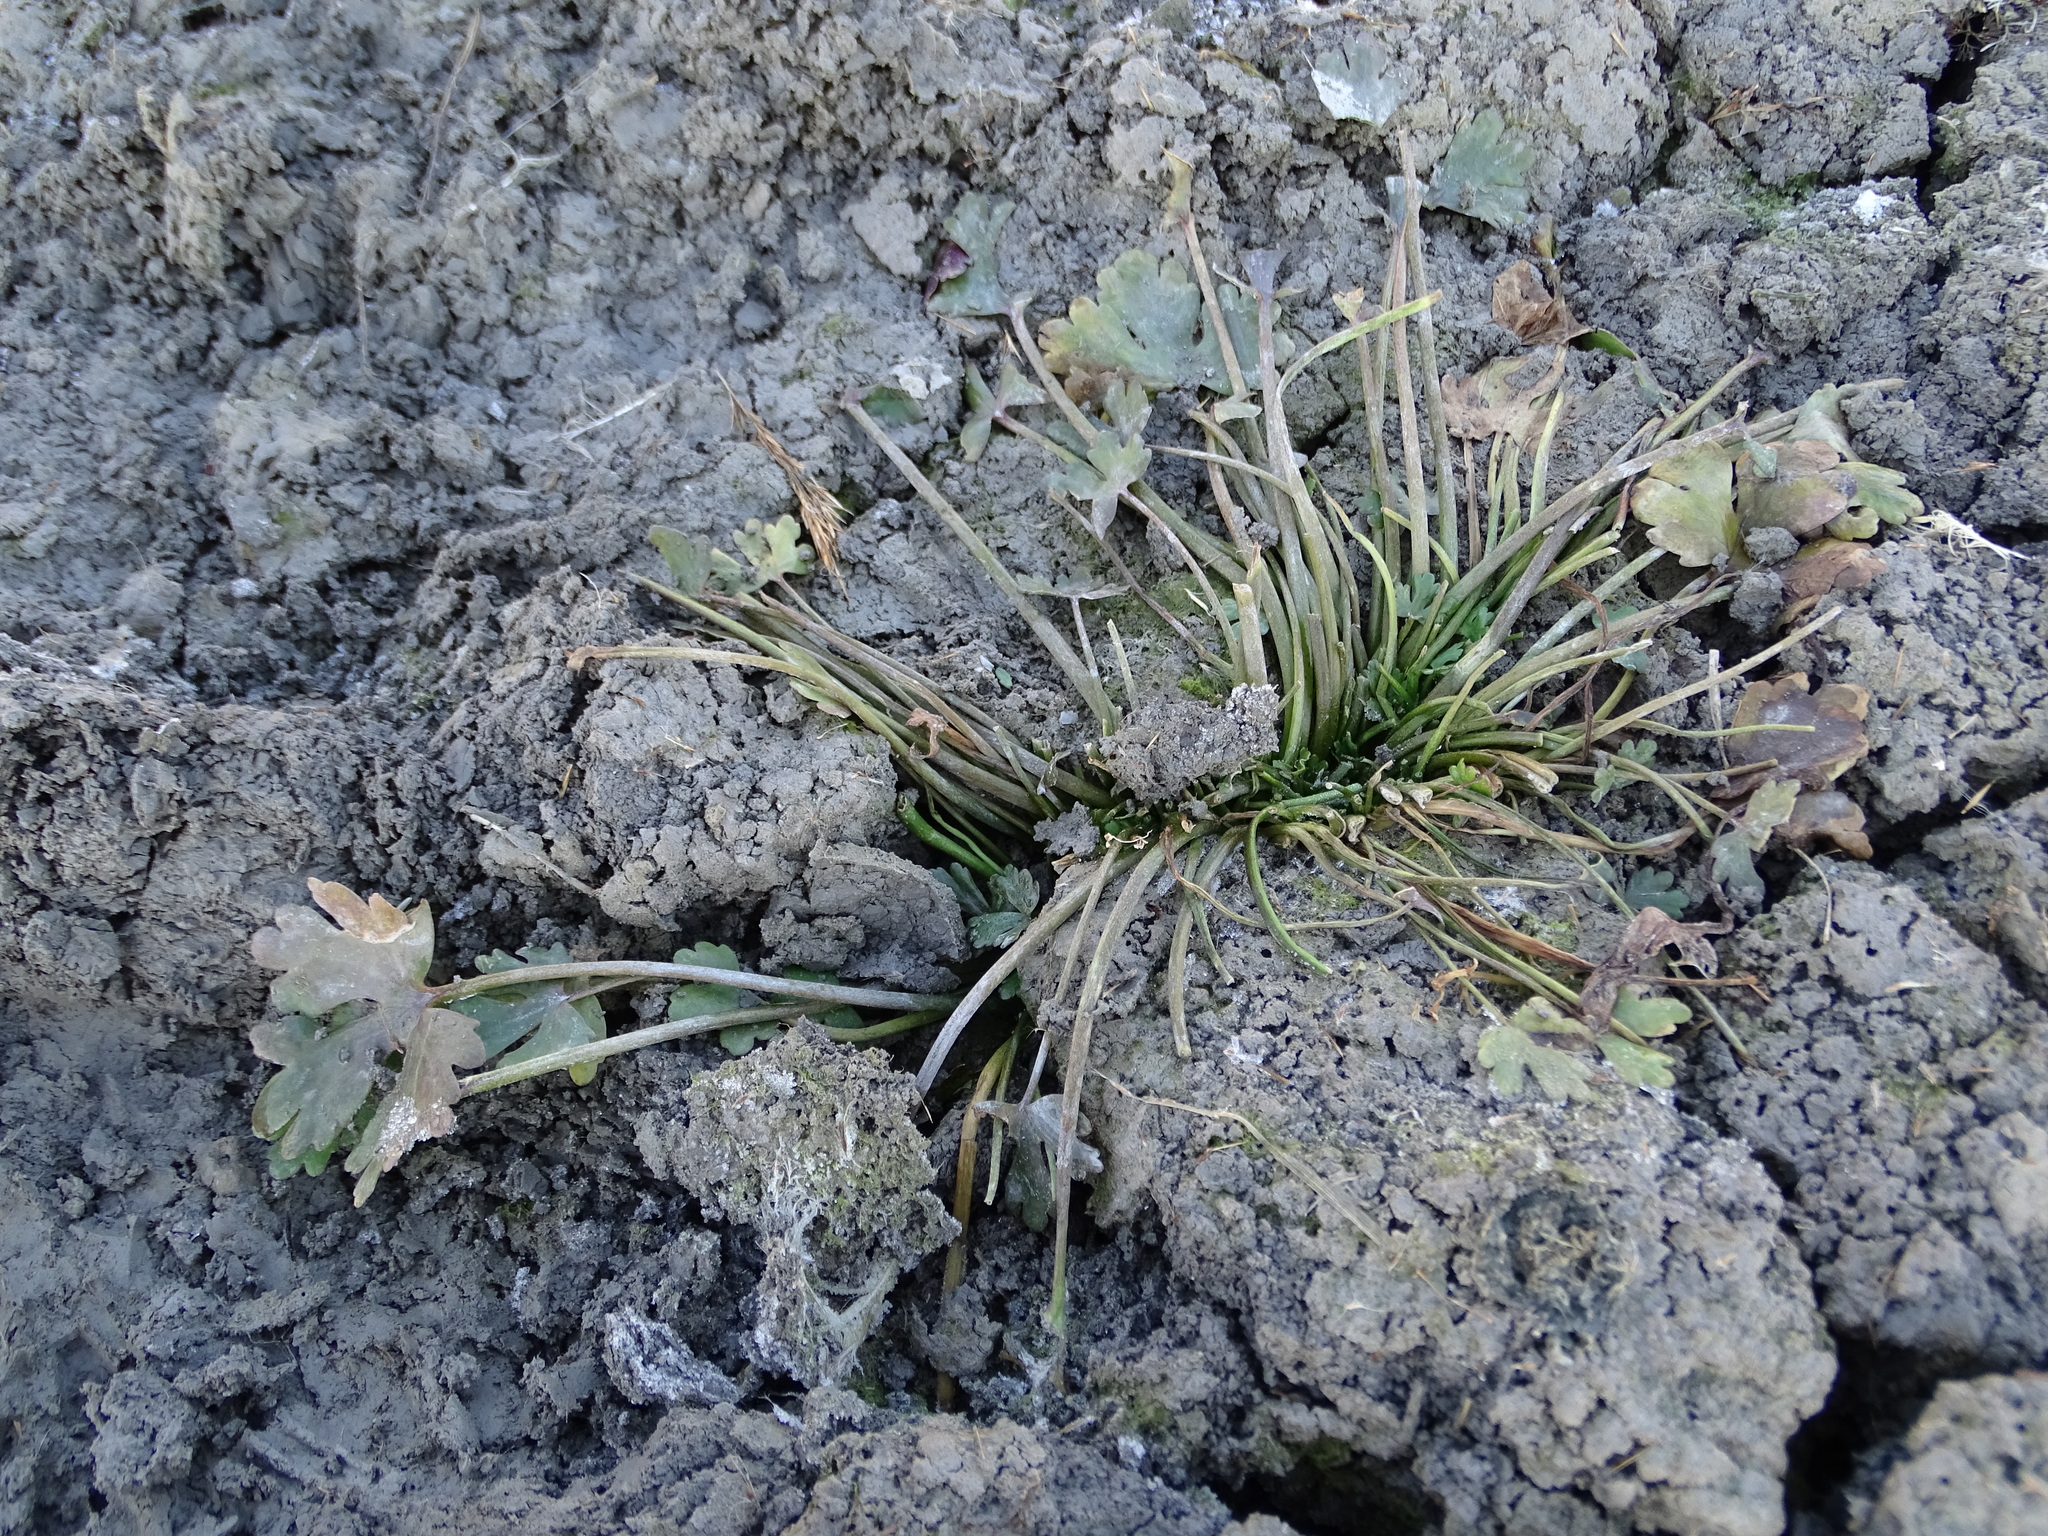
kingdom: Plantae
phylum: Tracheophyta
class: Magnoliopsida
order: Ranunculales
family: Ranunculaceae
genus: Ranunculus
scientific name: Ranunculus sceleratus
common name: Celery-leaved buttercup
